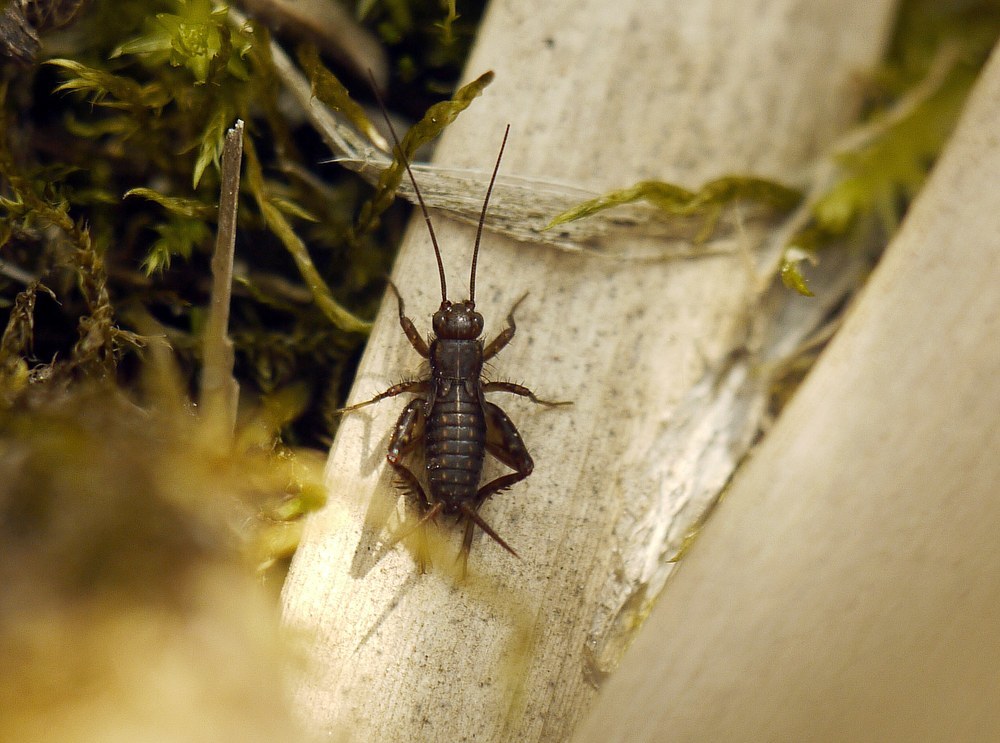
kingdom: Animalia
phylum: Arthropoda
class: Insecta
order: Orthoptera
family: Trigonidiidae
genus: Pteronemobius
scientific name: Pteronemobius heydenii
